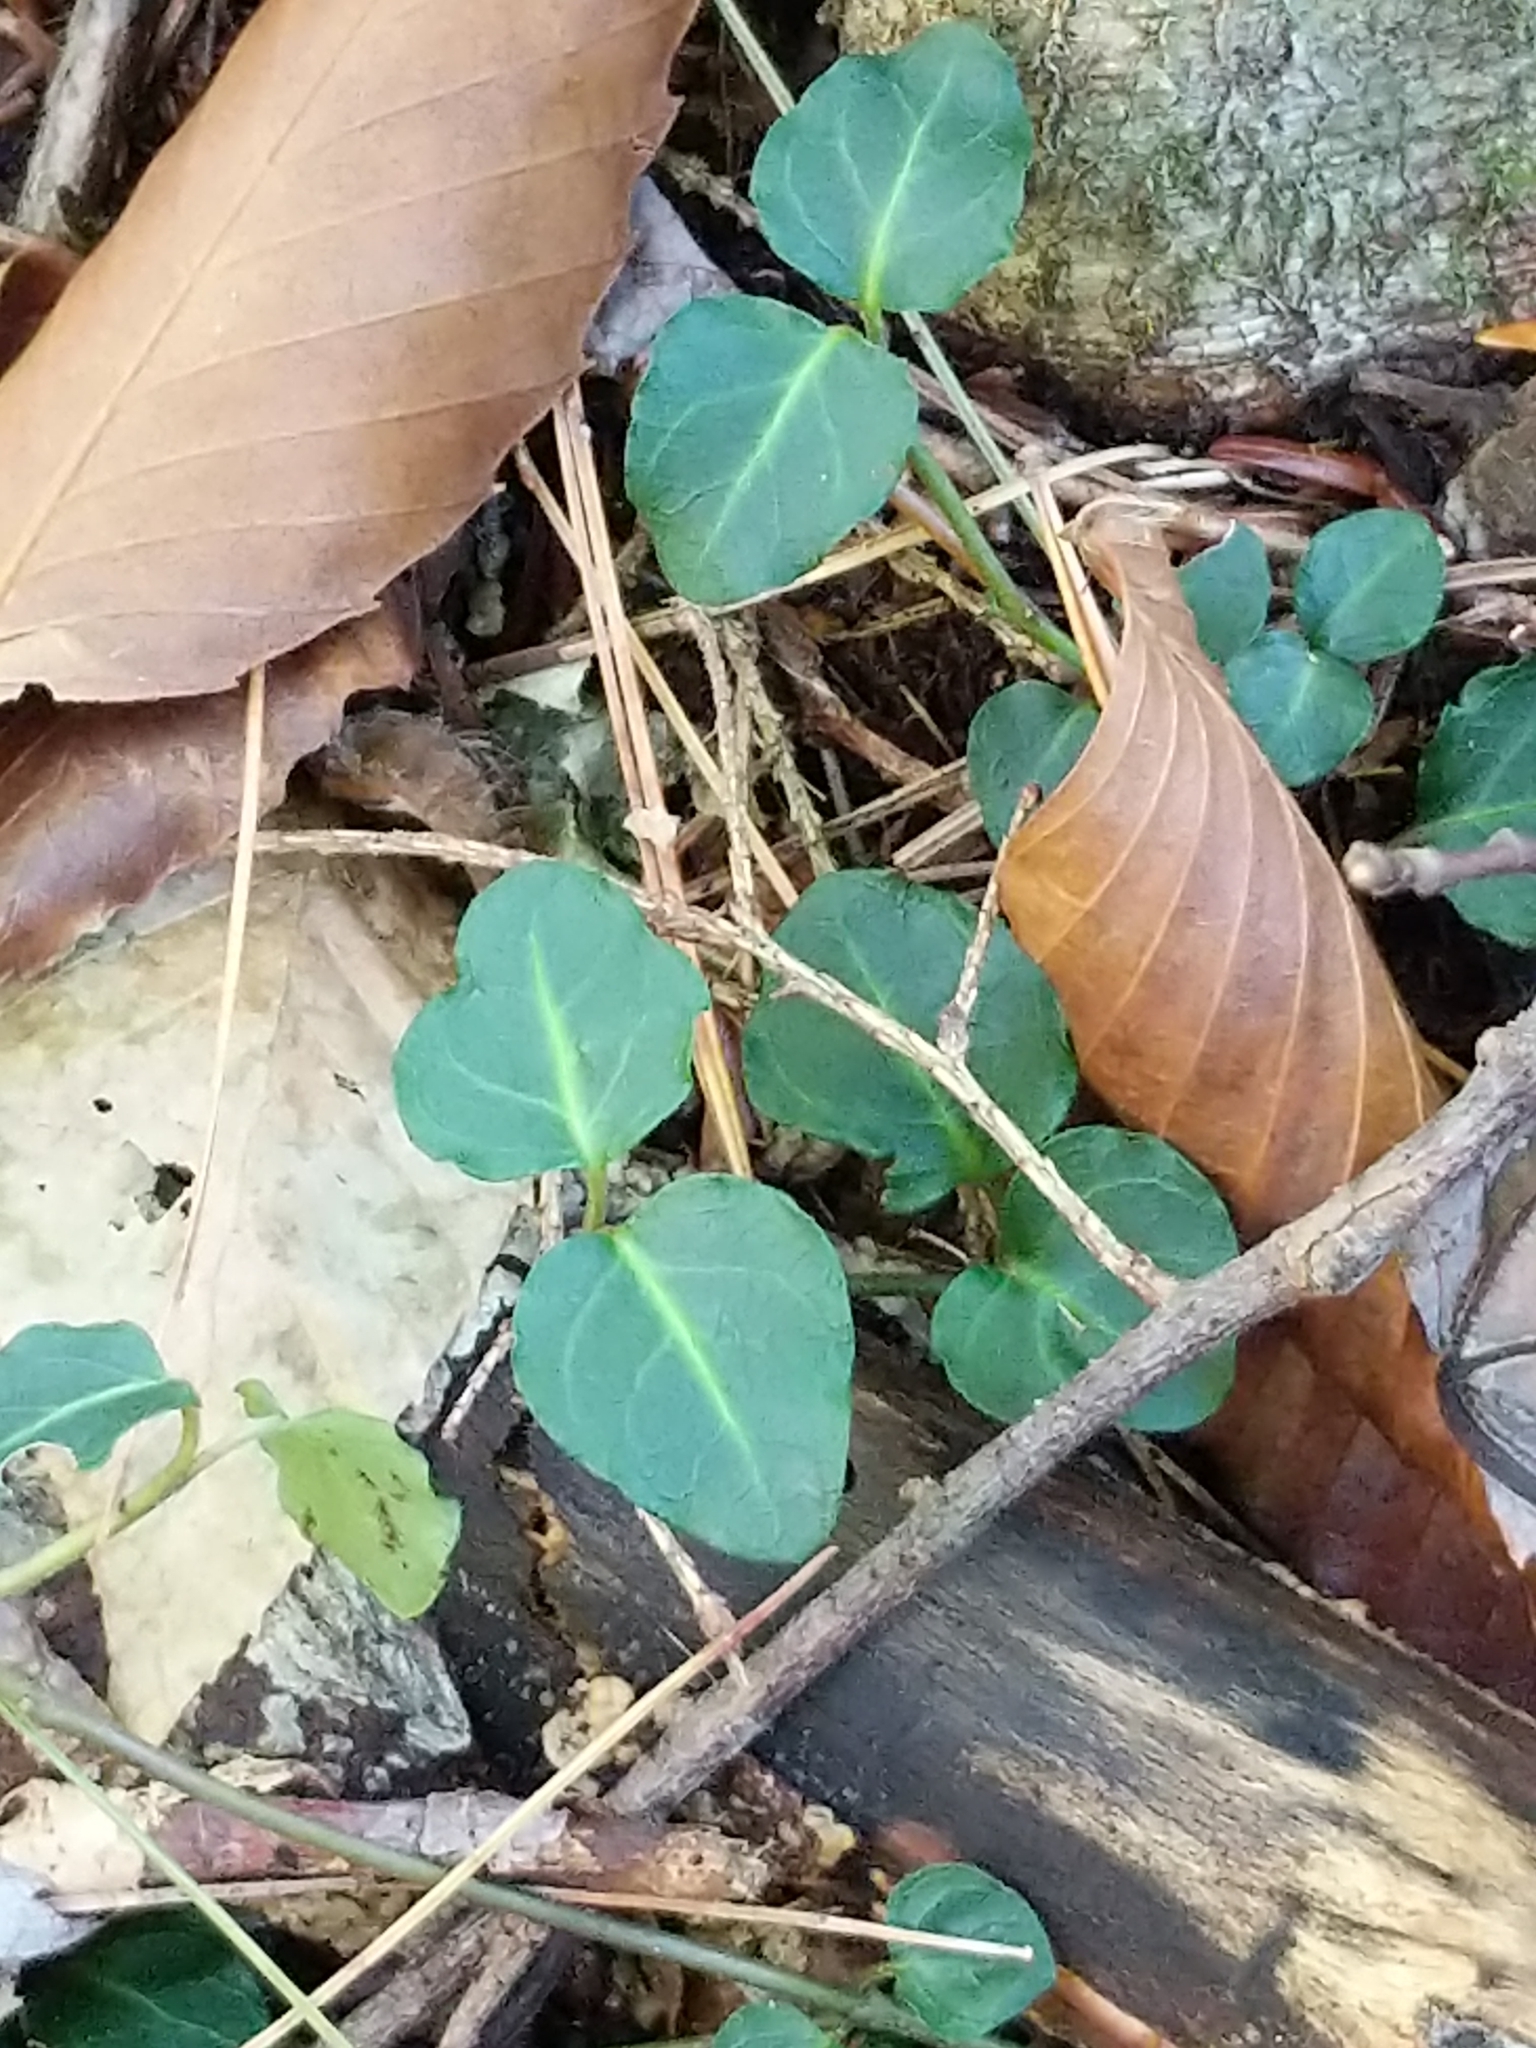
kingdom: Plantae
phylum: Tracheophyta
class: Magnoliopsida
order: Gentianales
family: Rubiaceae
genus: Mitchella
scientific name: Mitchella repens
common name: Partridge-berry
